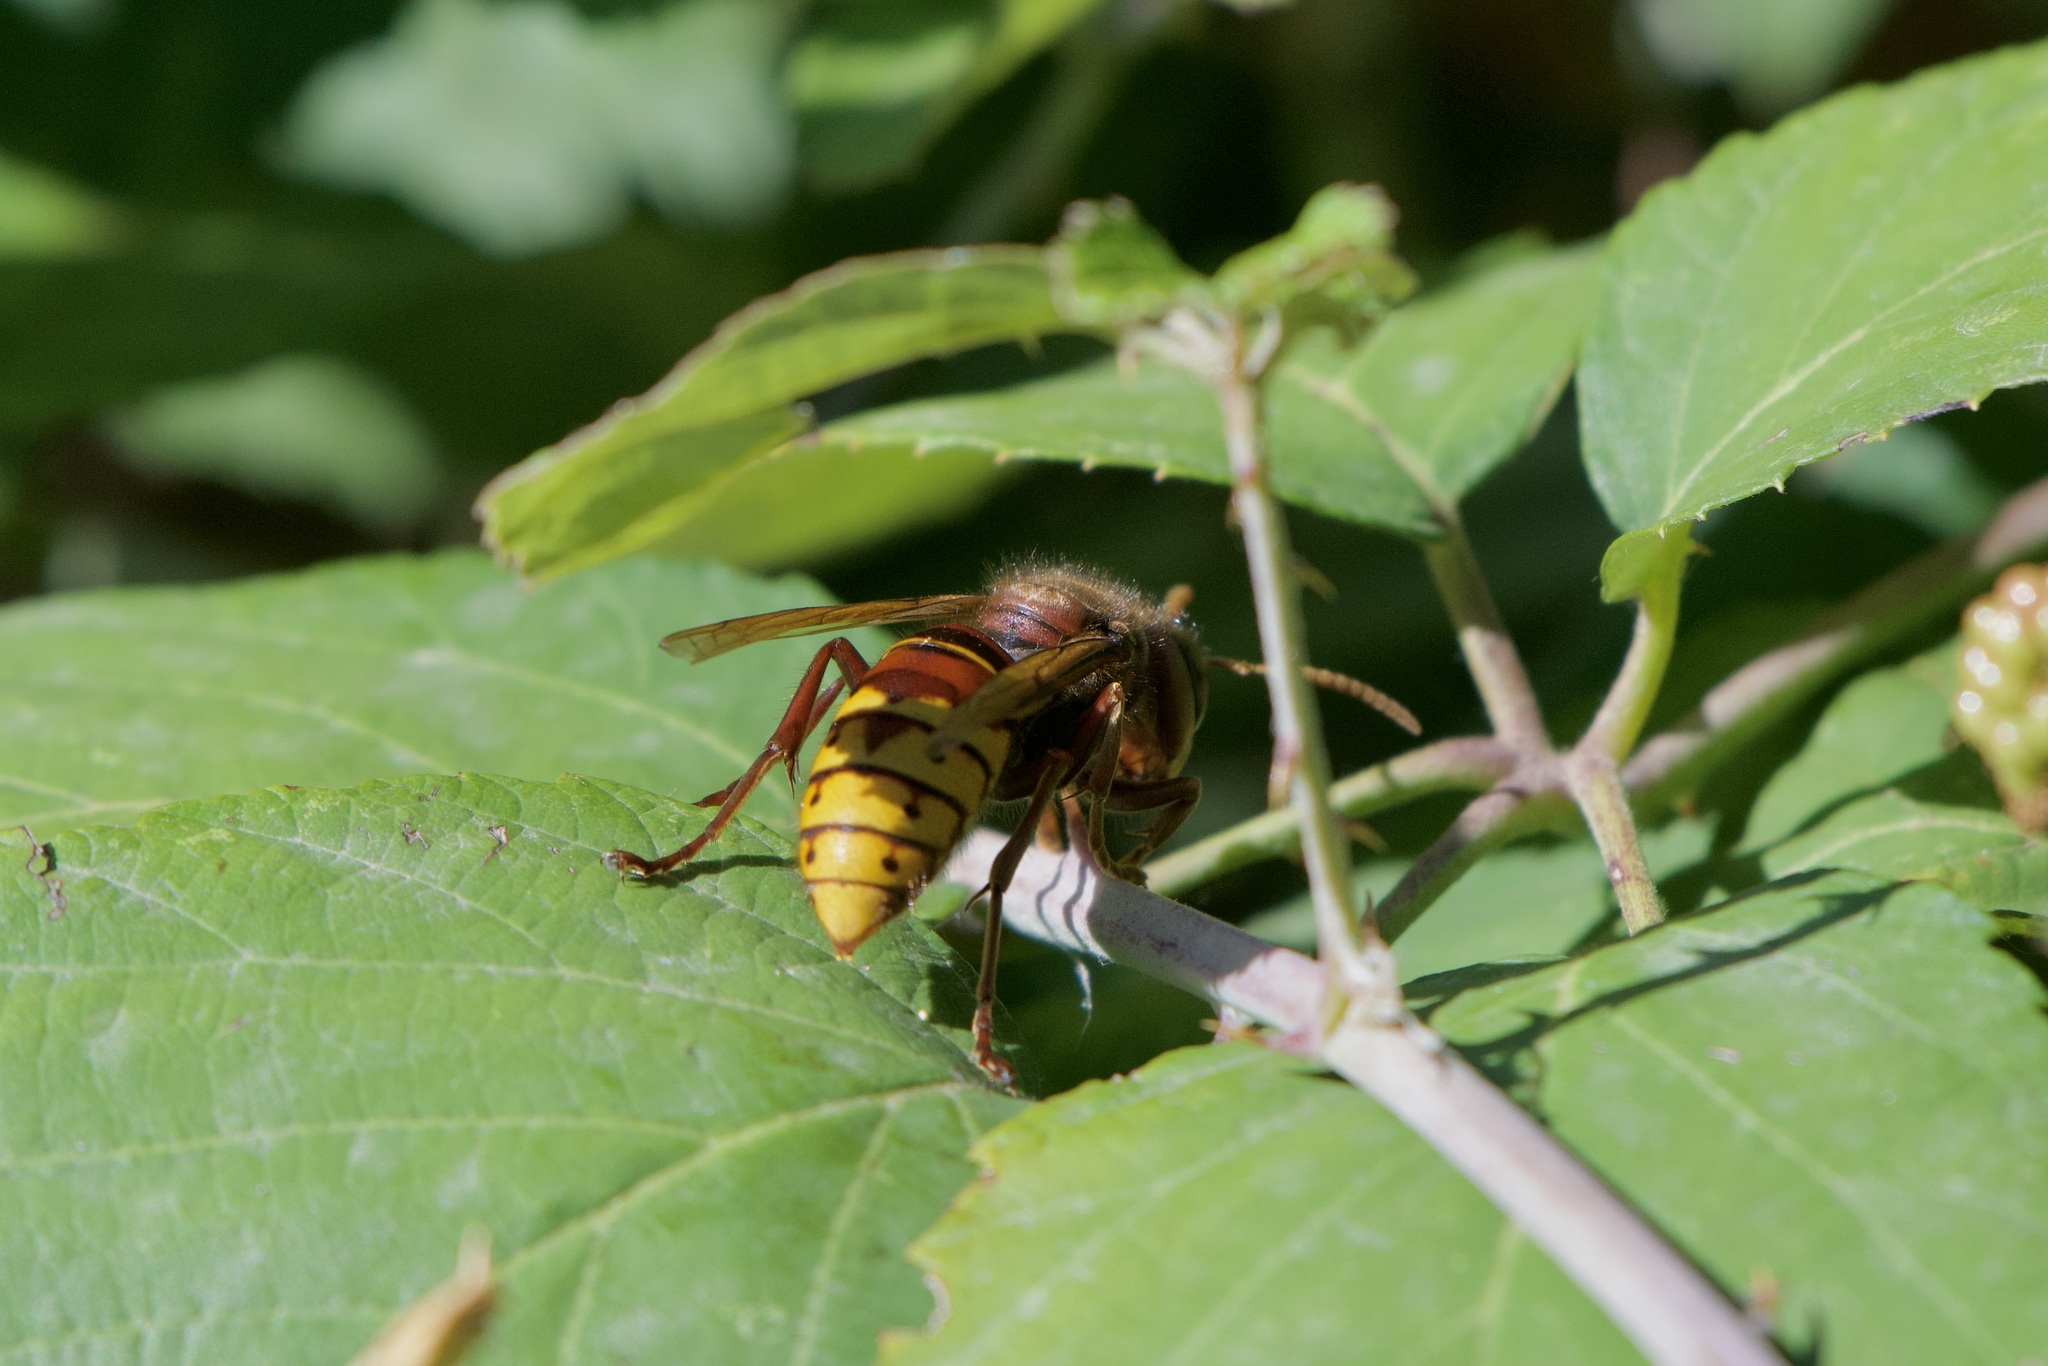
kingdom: Animalia
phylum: Arthropoda
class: Insecta
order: Hymenoptera
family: Vespidae
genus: Vespa
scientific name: Vespa crabro
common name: Hornet
